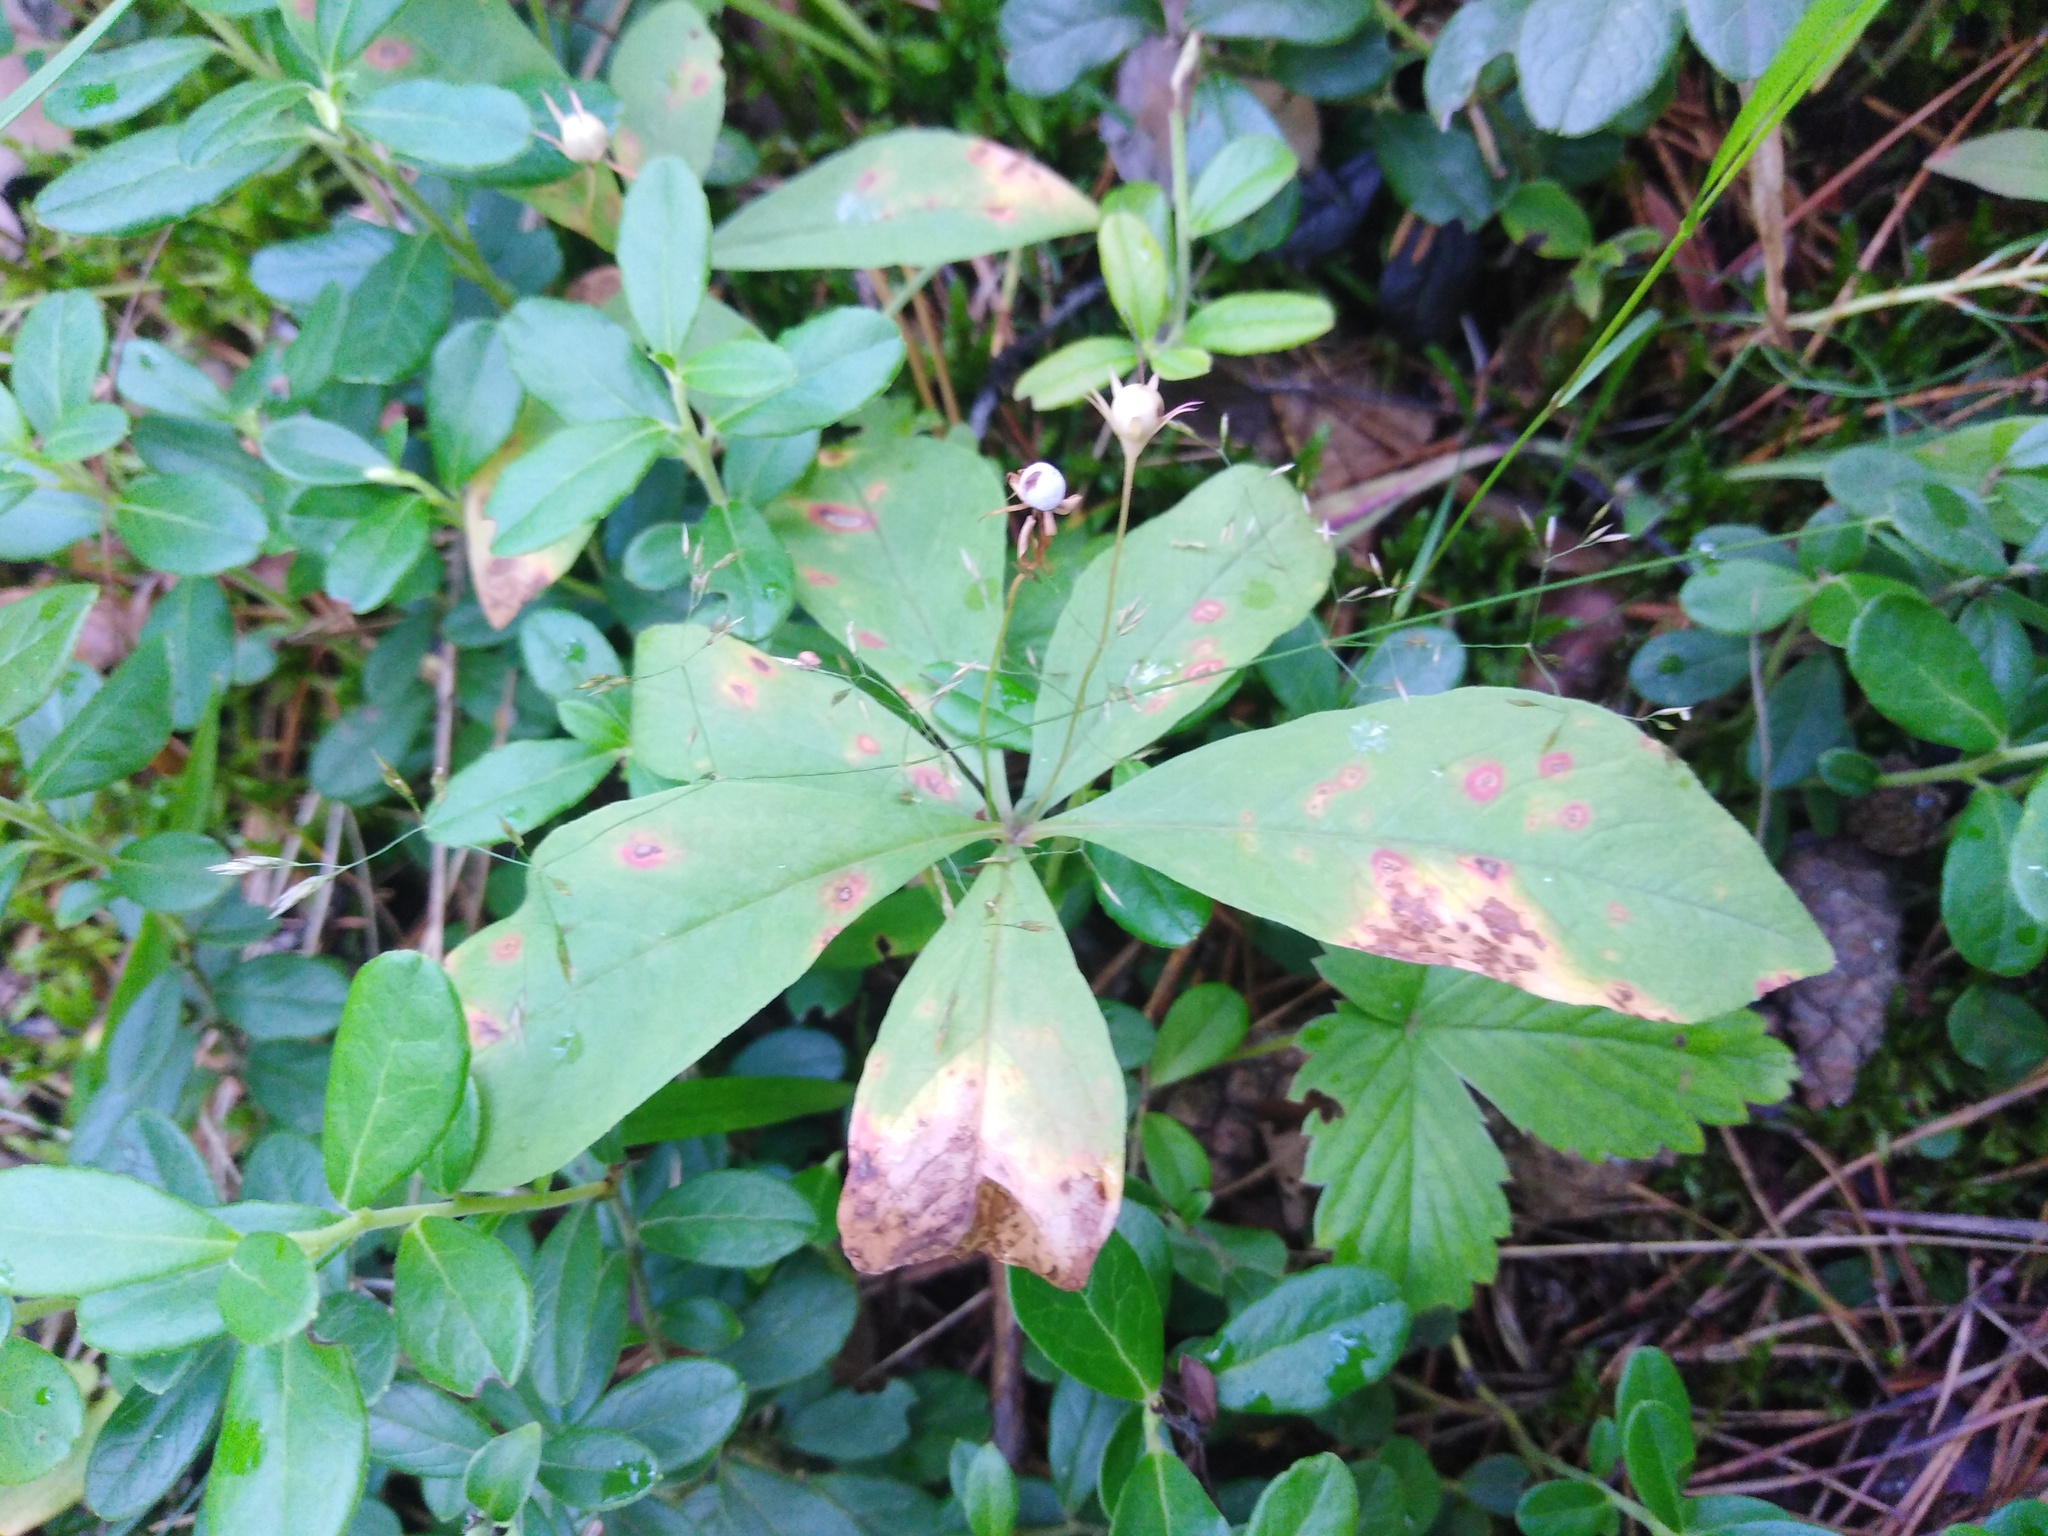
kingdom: Plantae
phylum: Tracheophyta
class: Magnoliopsida
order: Ericales
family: Primulaceae
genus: Lysimachia
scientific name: Lysimachia europaea
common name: Arctic starflower
